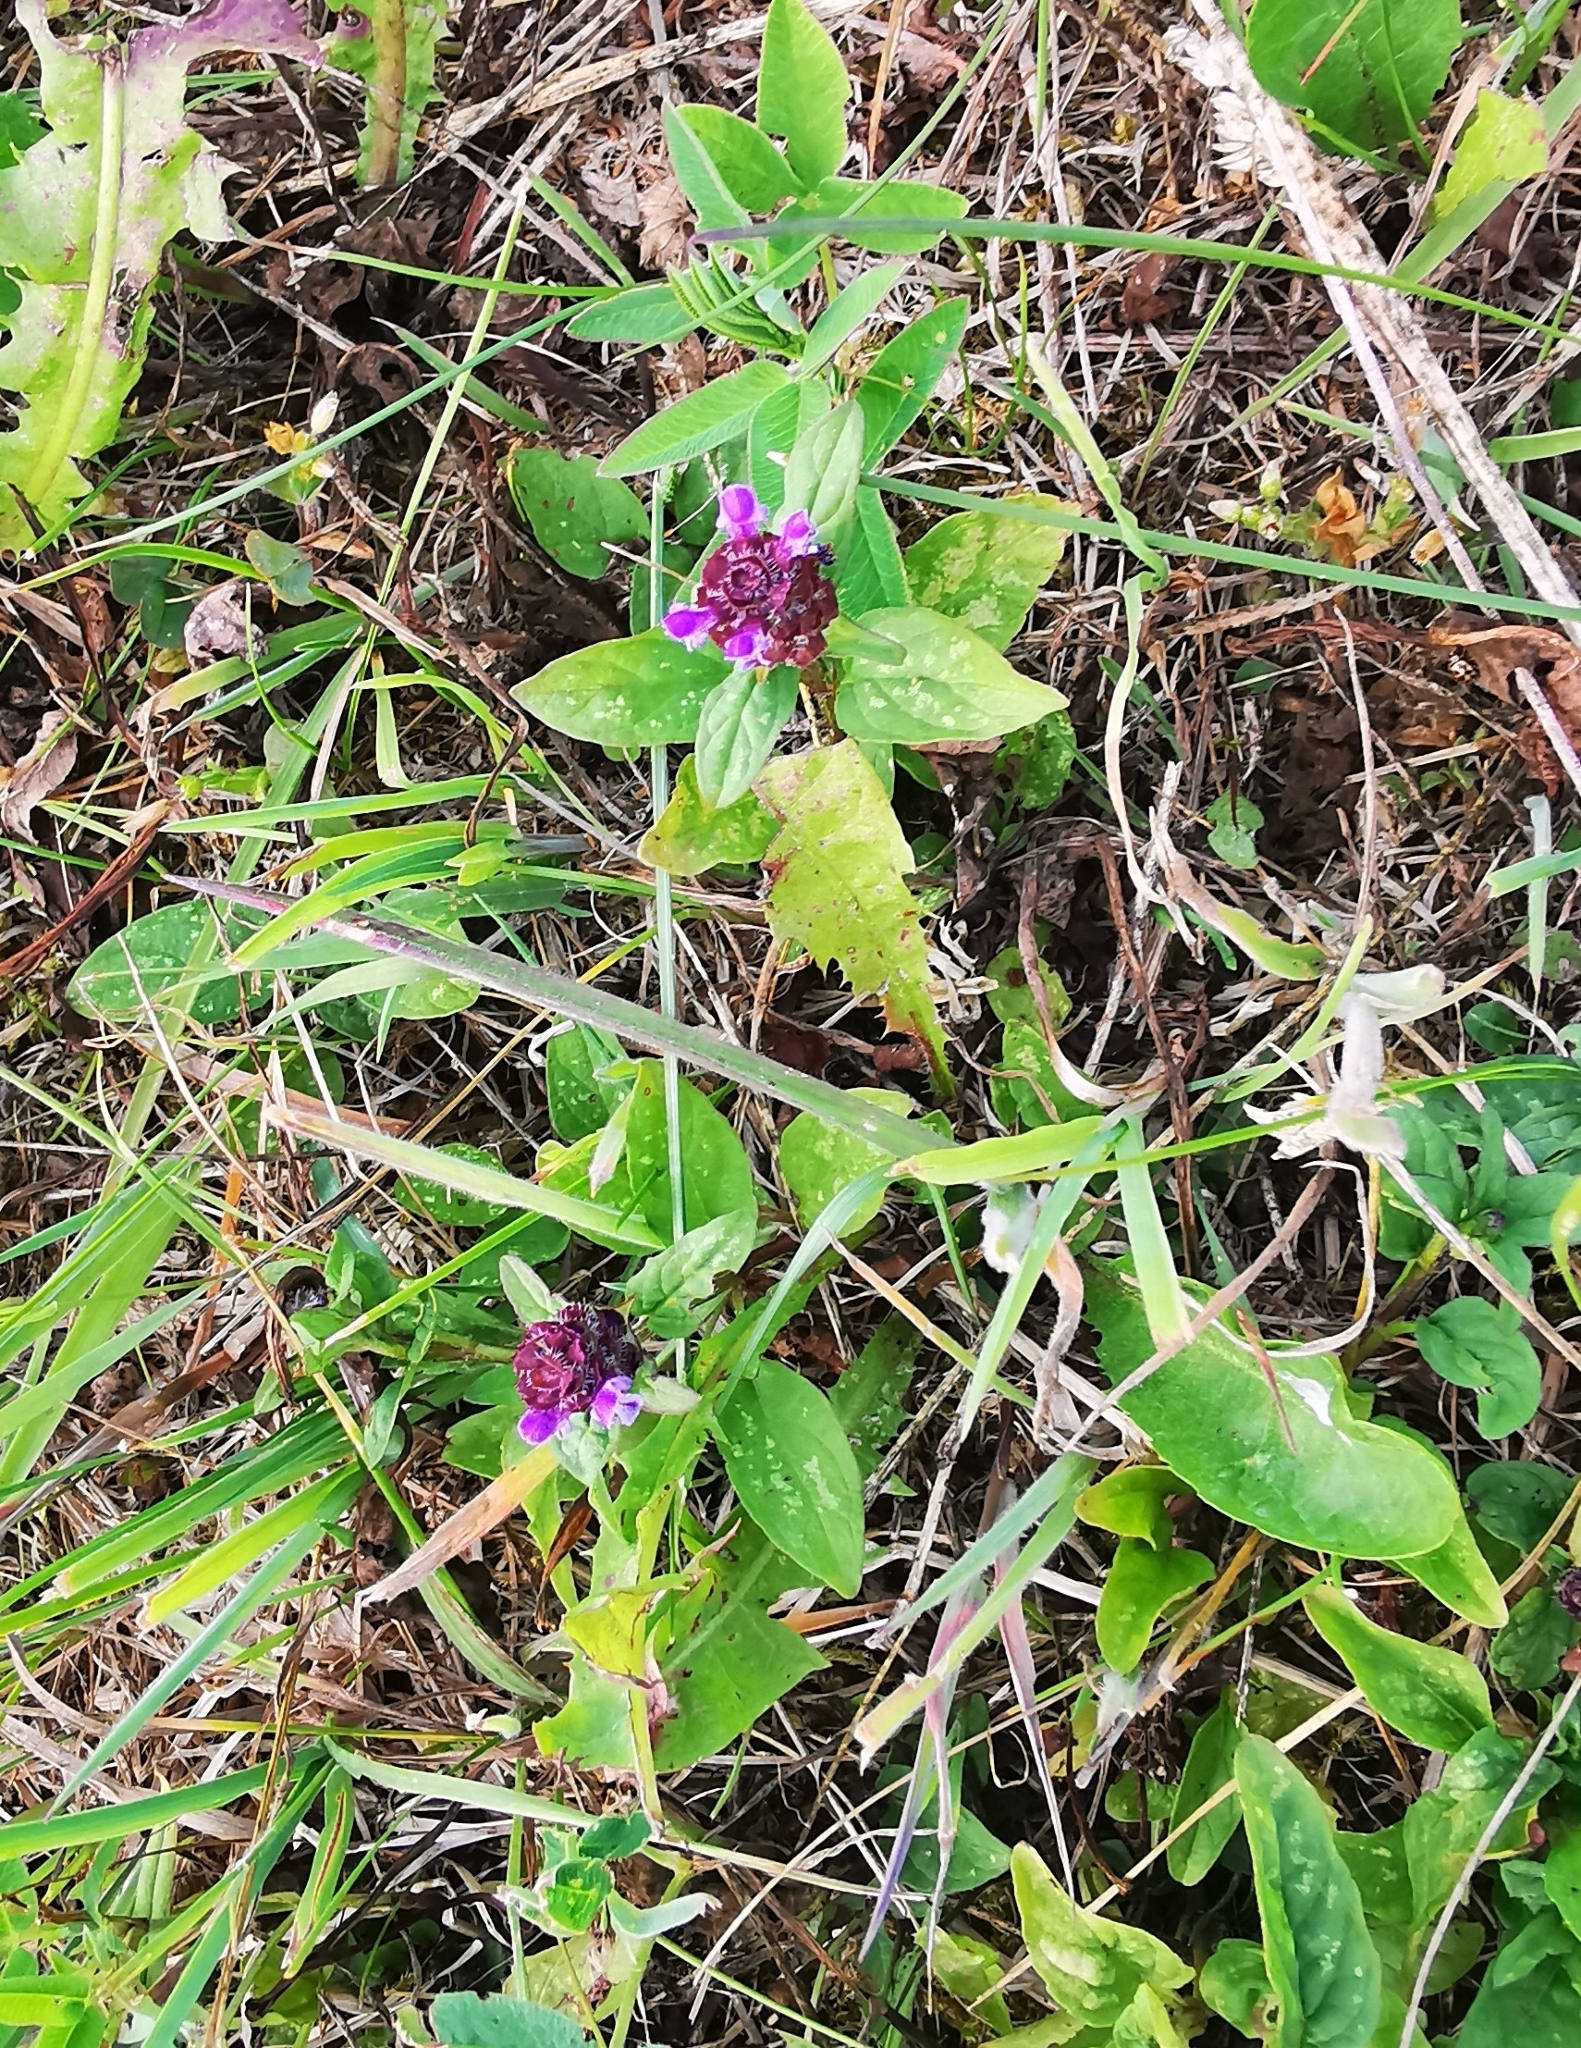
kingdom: Plantae
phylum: Tracheophyta
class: Magnoliopsida
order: Lamiales
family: Lamiaceae
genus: Prunella
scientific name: Prunella vulgaris
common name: Heal-all
